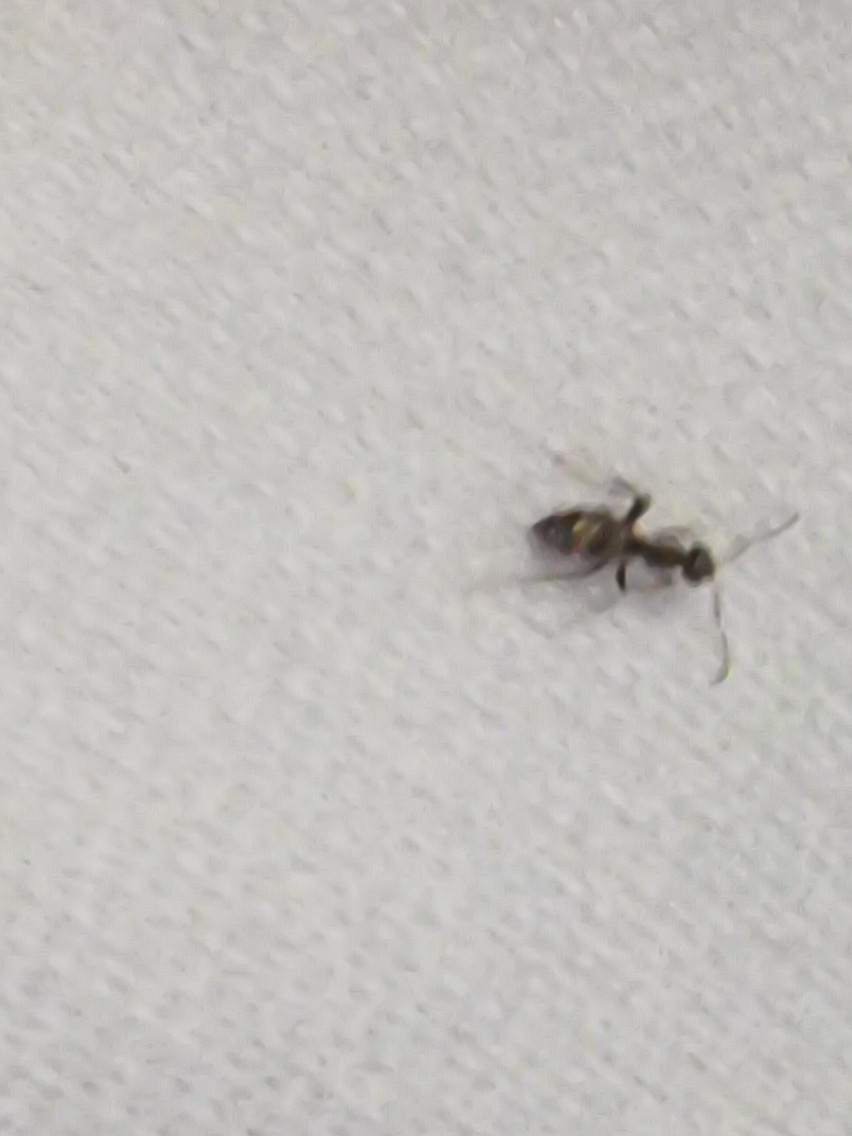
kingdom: Animalia
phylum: Arthropoda
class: Insecta
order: Hymenoptera
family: Formicidae
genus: Lasius
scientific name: Lasius grandis
